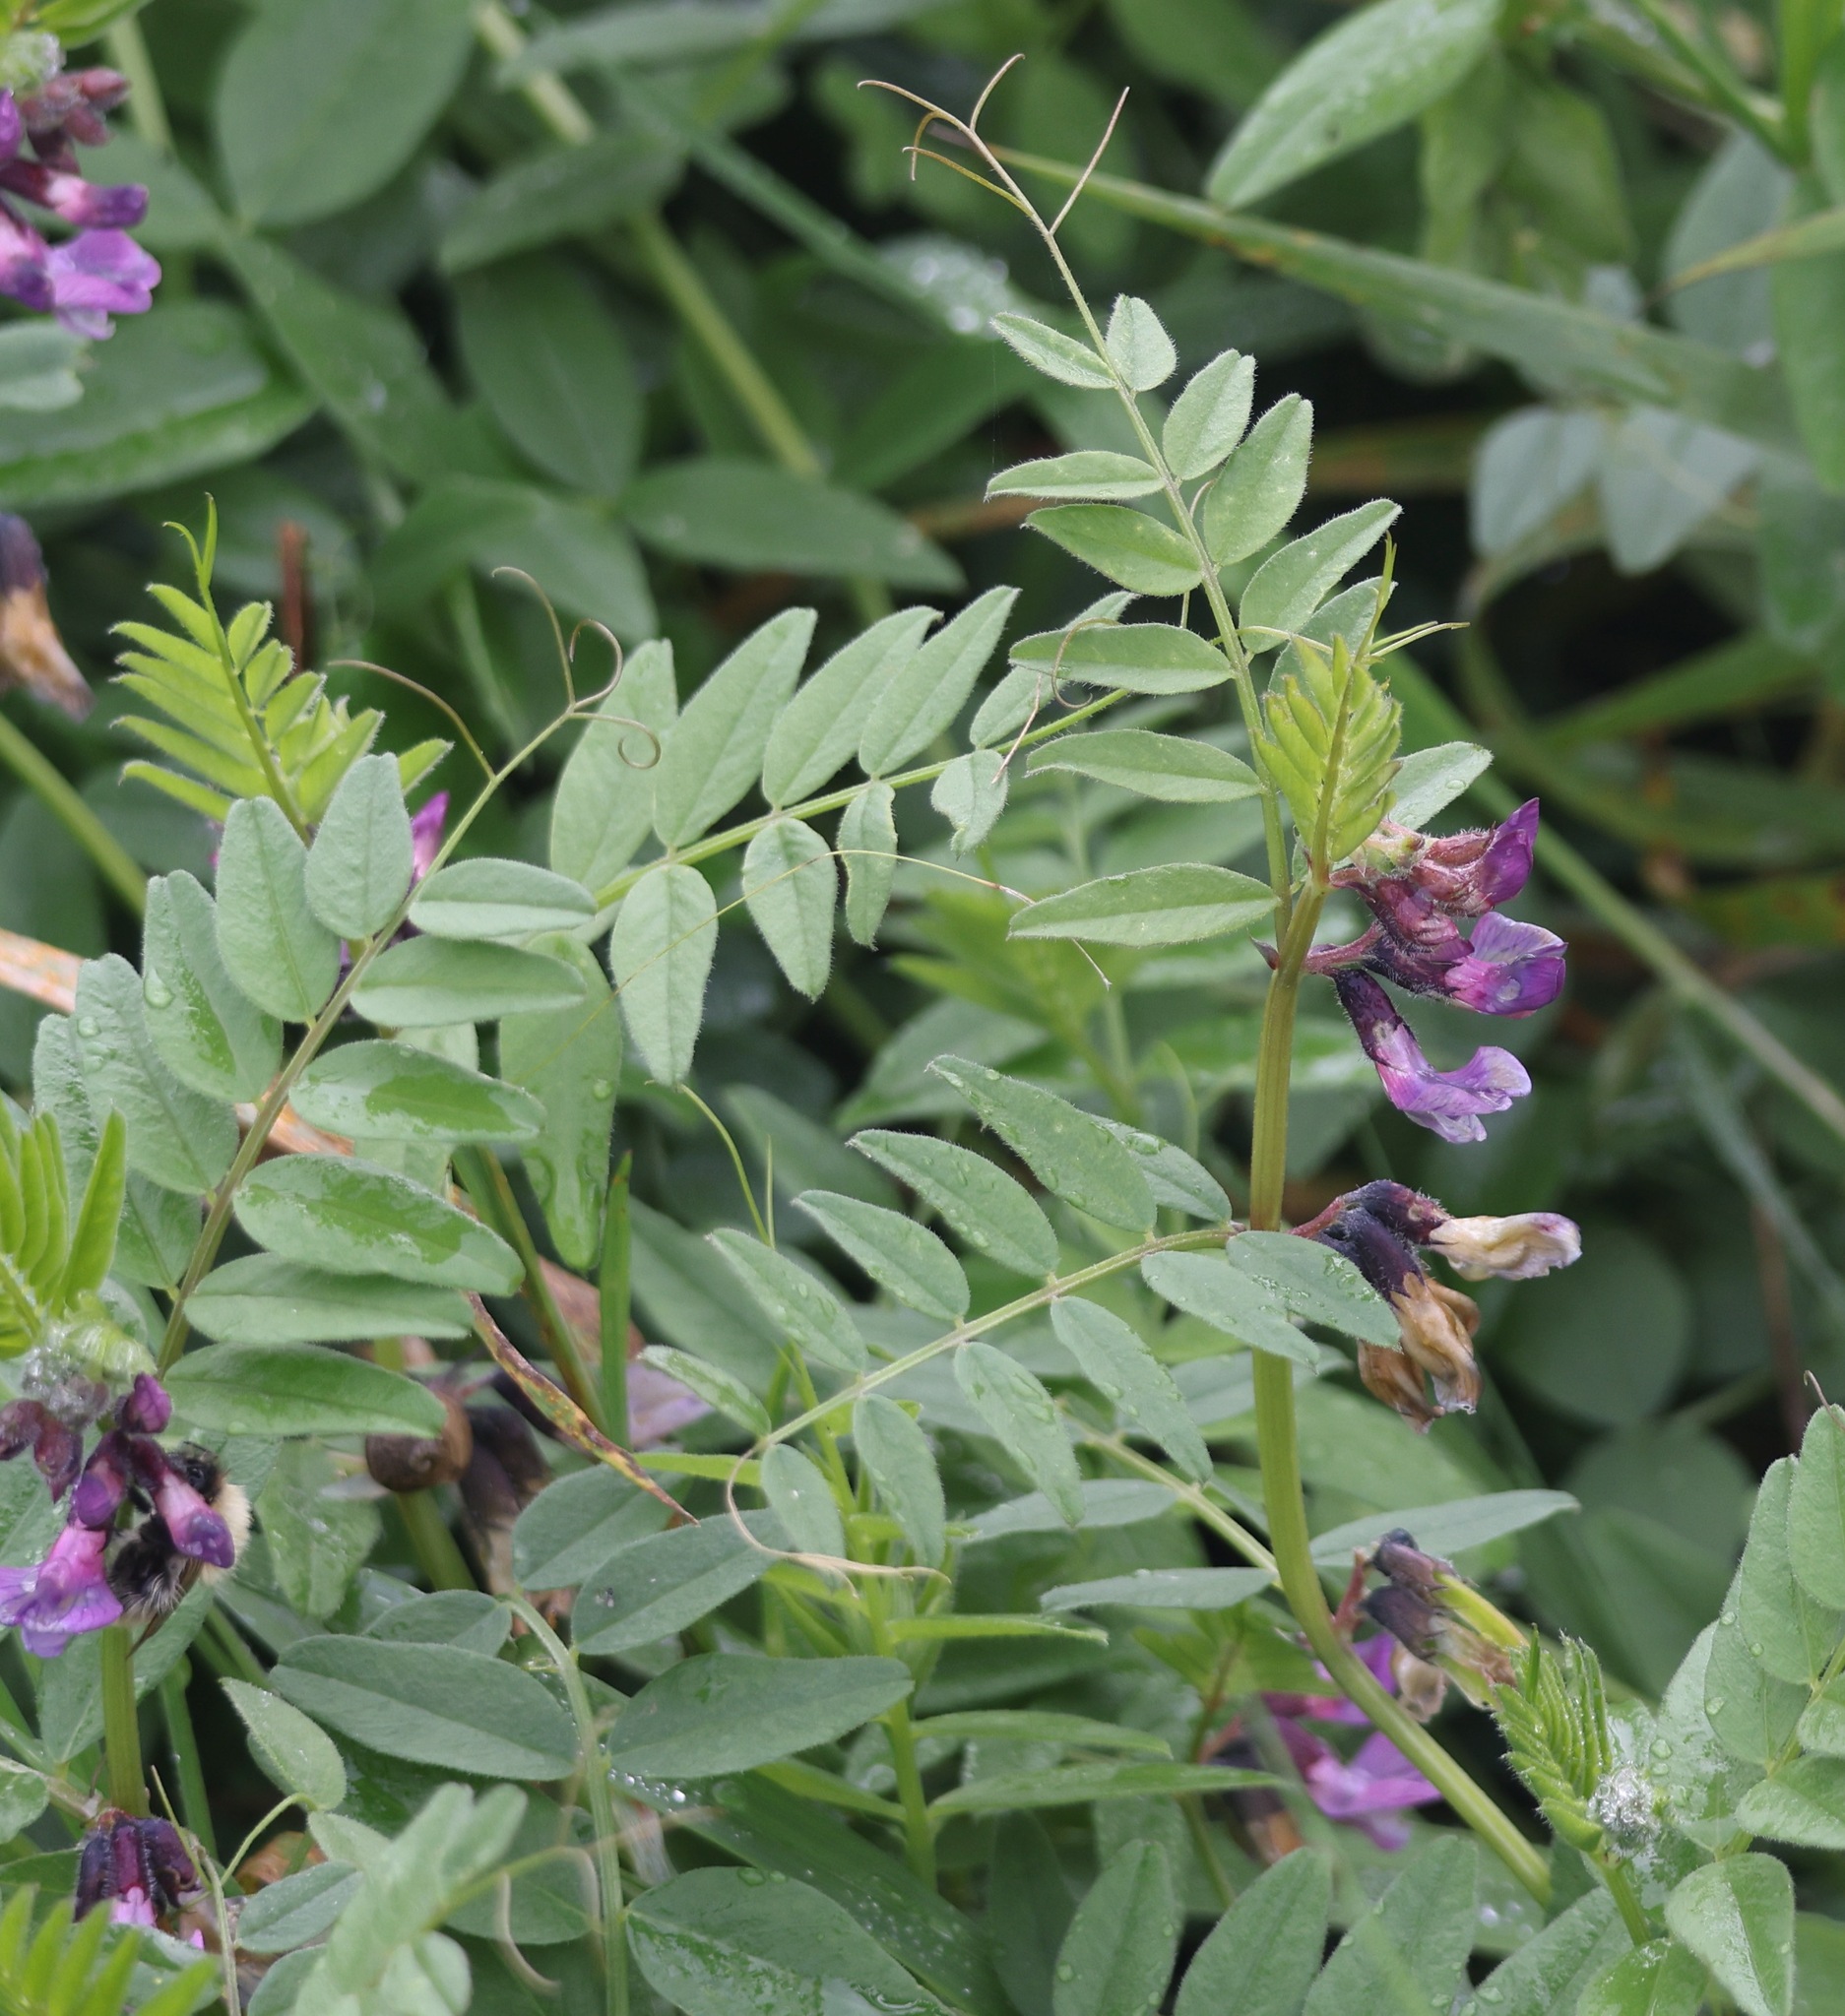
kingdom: Plantae
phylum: Tracheophyta
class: Magnoliopsida
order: Fabales
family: Fabaceae
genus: Vicia
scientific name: Vicia sepium
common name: Bush vetch
